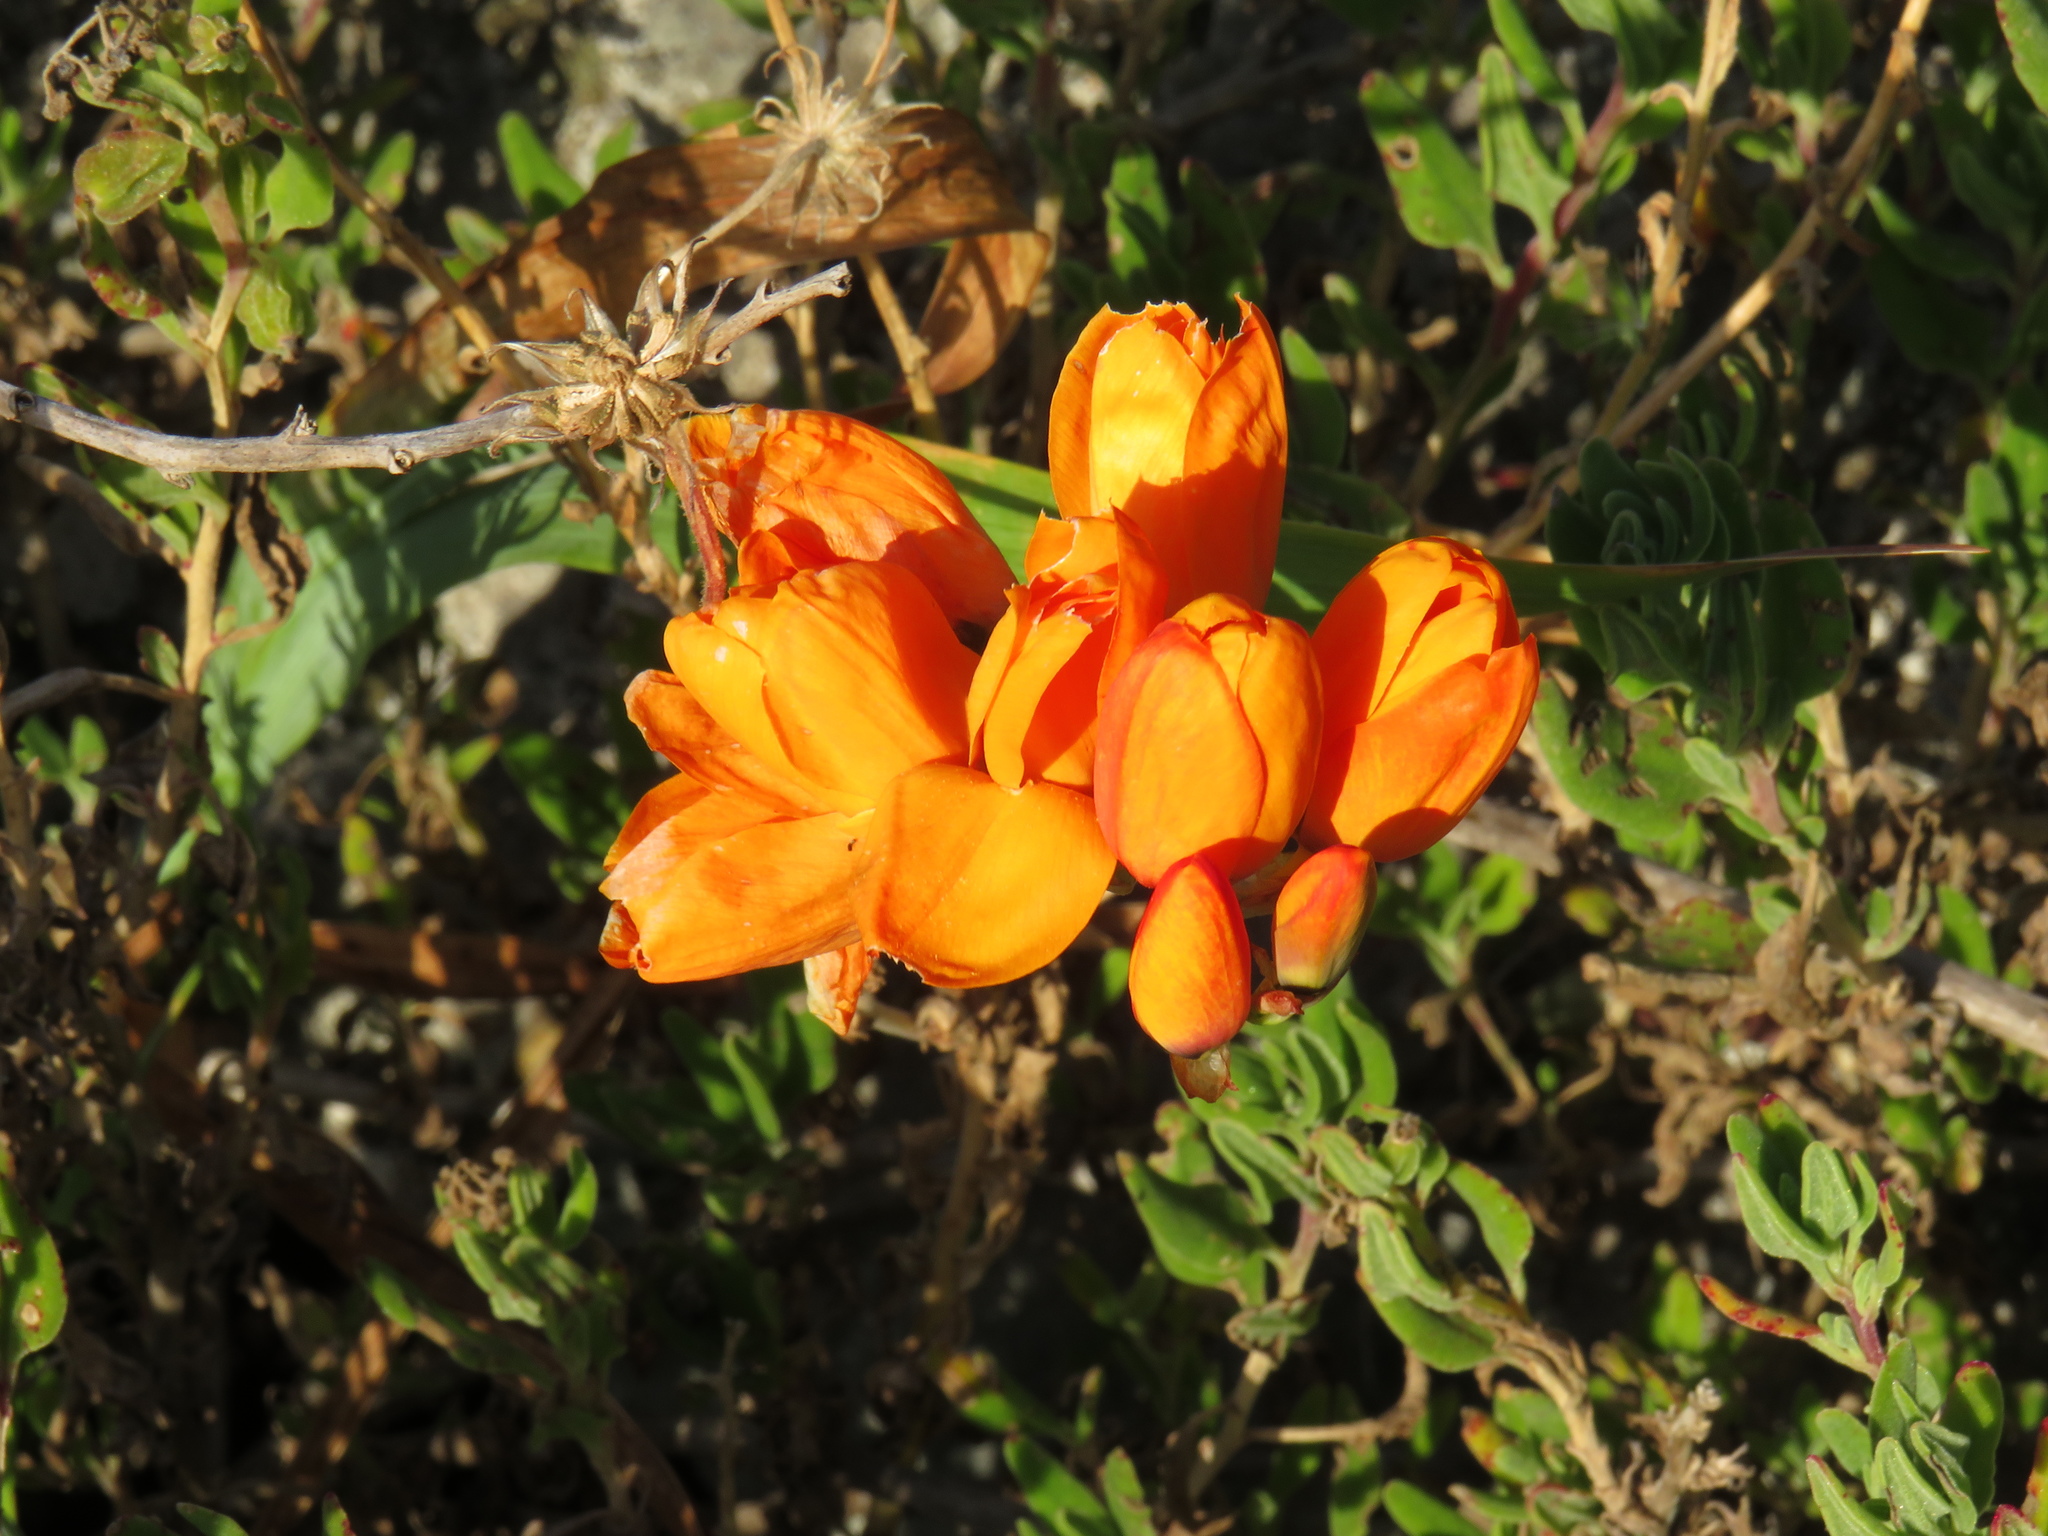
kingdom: Plantae
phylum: Tracheophyta
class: Liliopsida
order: Asparagales
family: Iridaceae
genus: Ixia
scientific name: Ixia calendulacea
